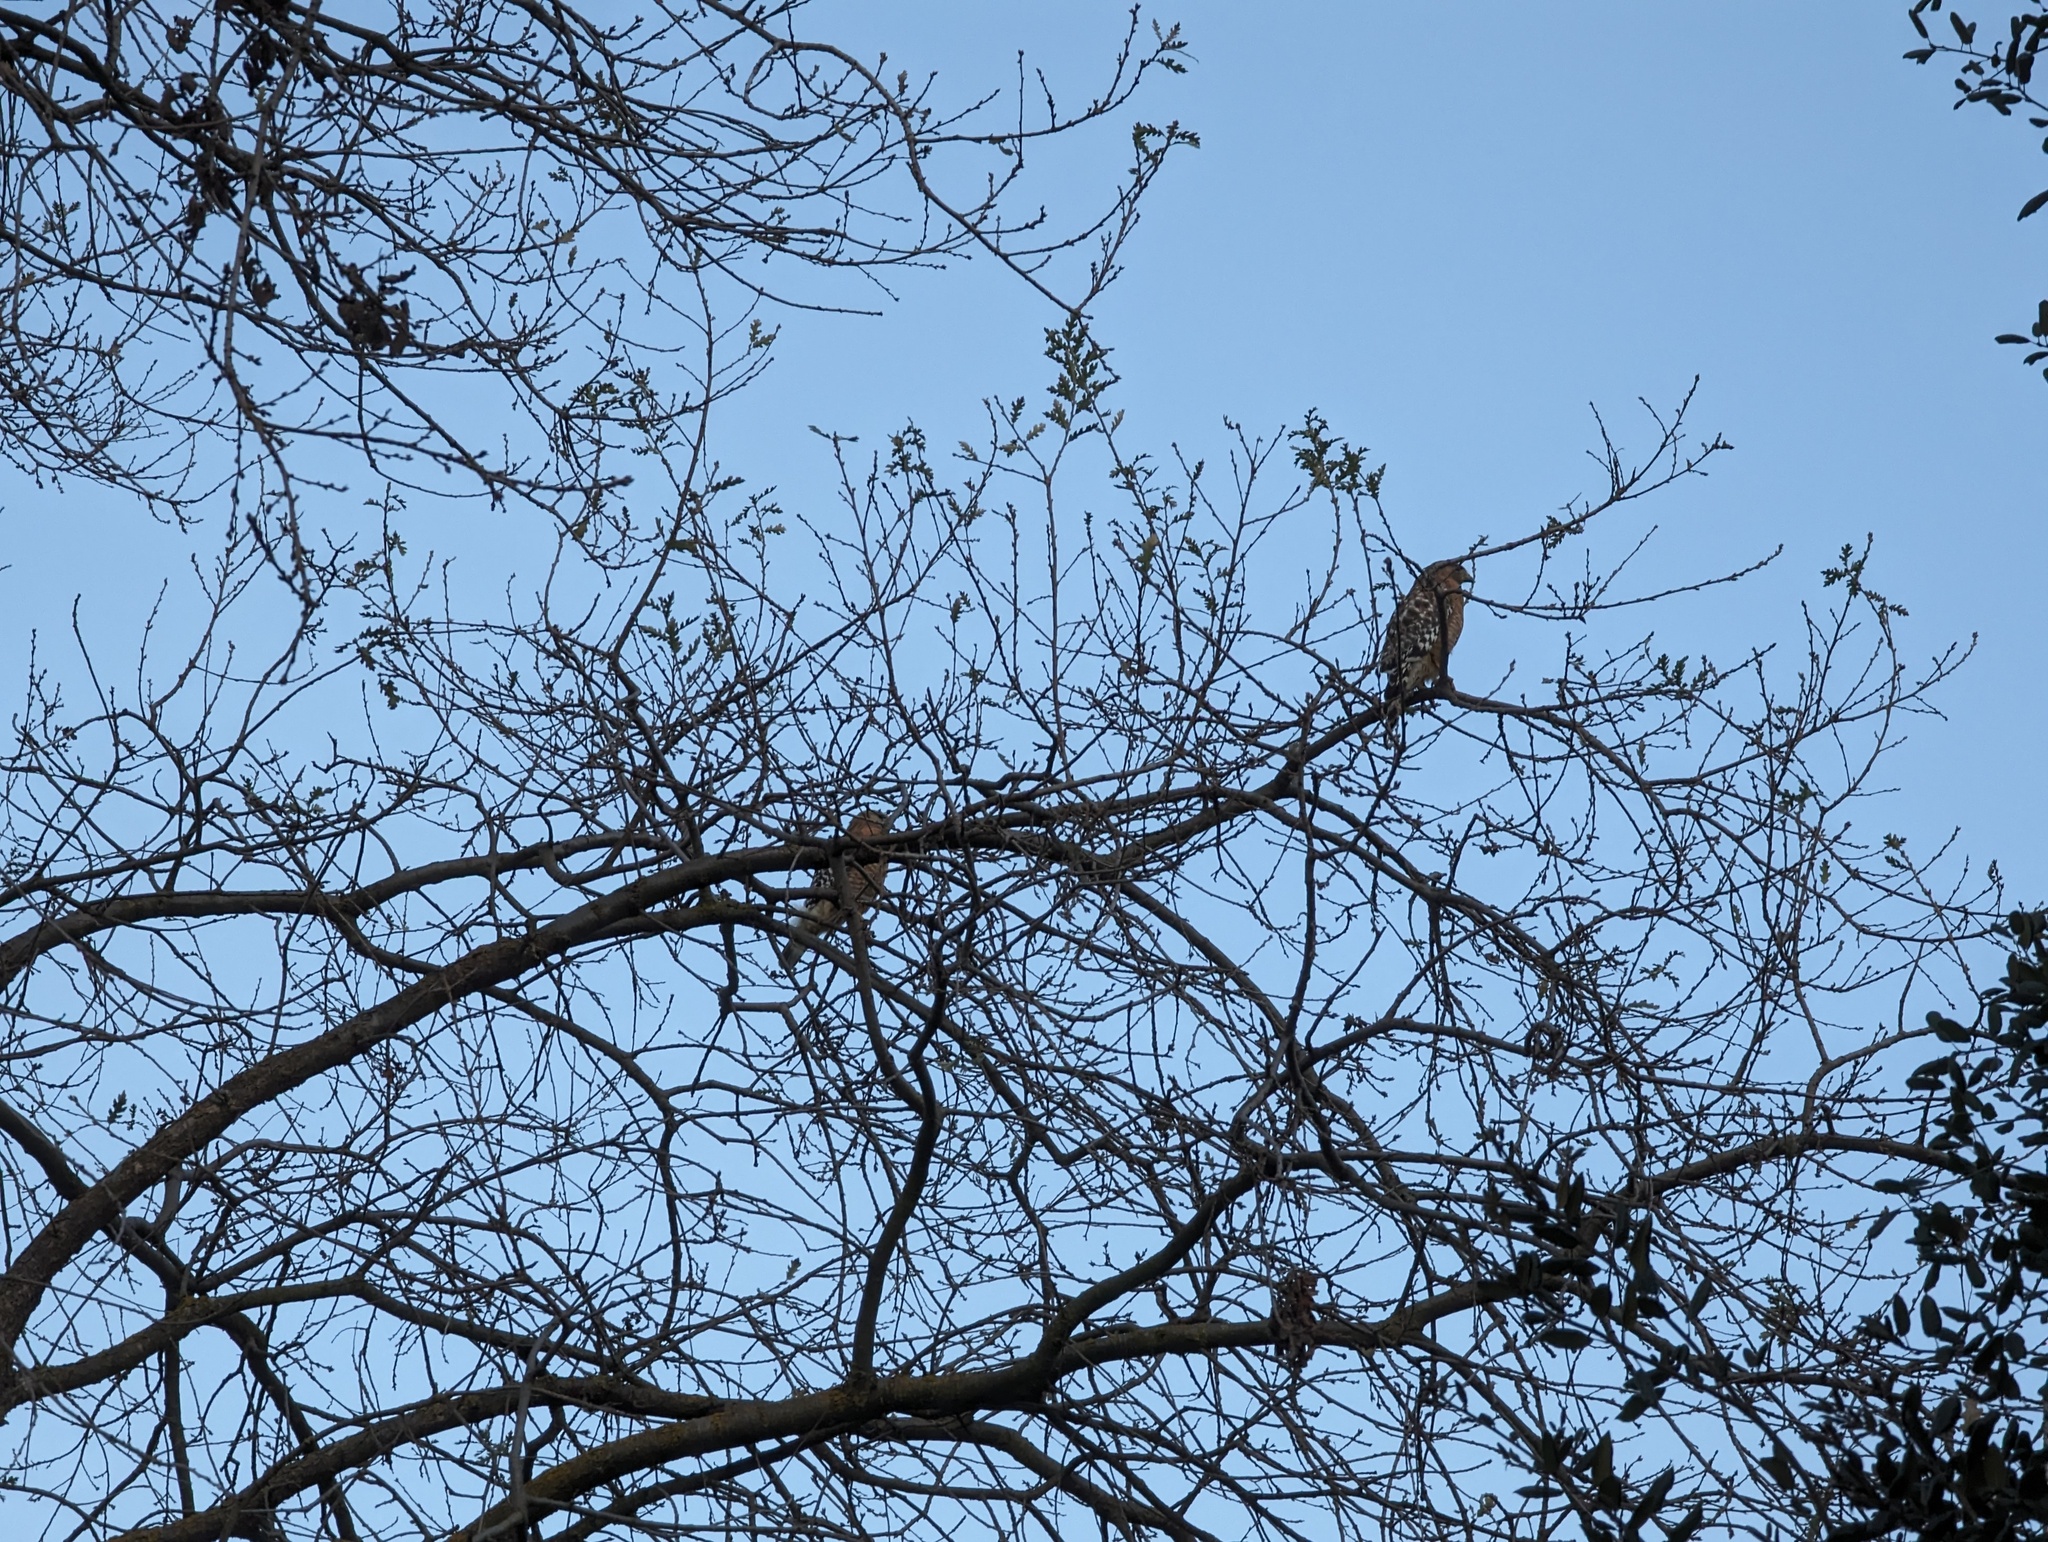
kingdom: Animalia
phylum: Chordata
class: Aves
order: Accipitriformes
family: Accipitridae
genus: Buteo
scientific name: Buteo lineatus
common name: Red-shouldered hawk
